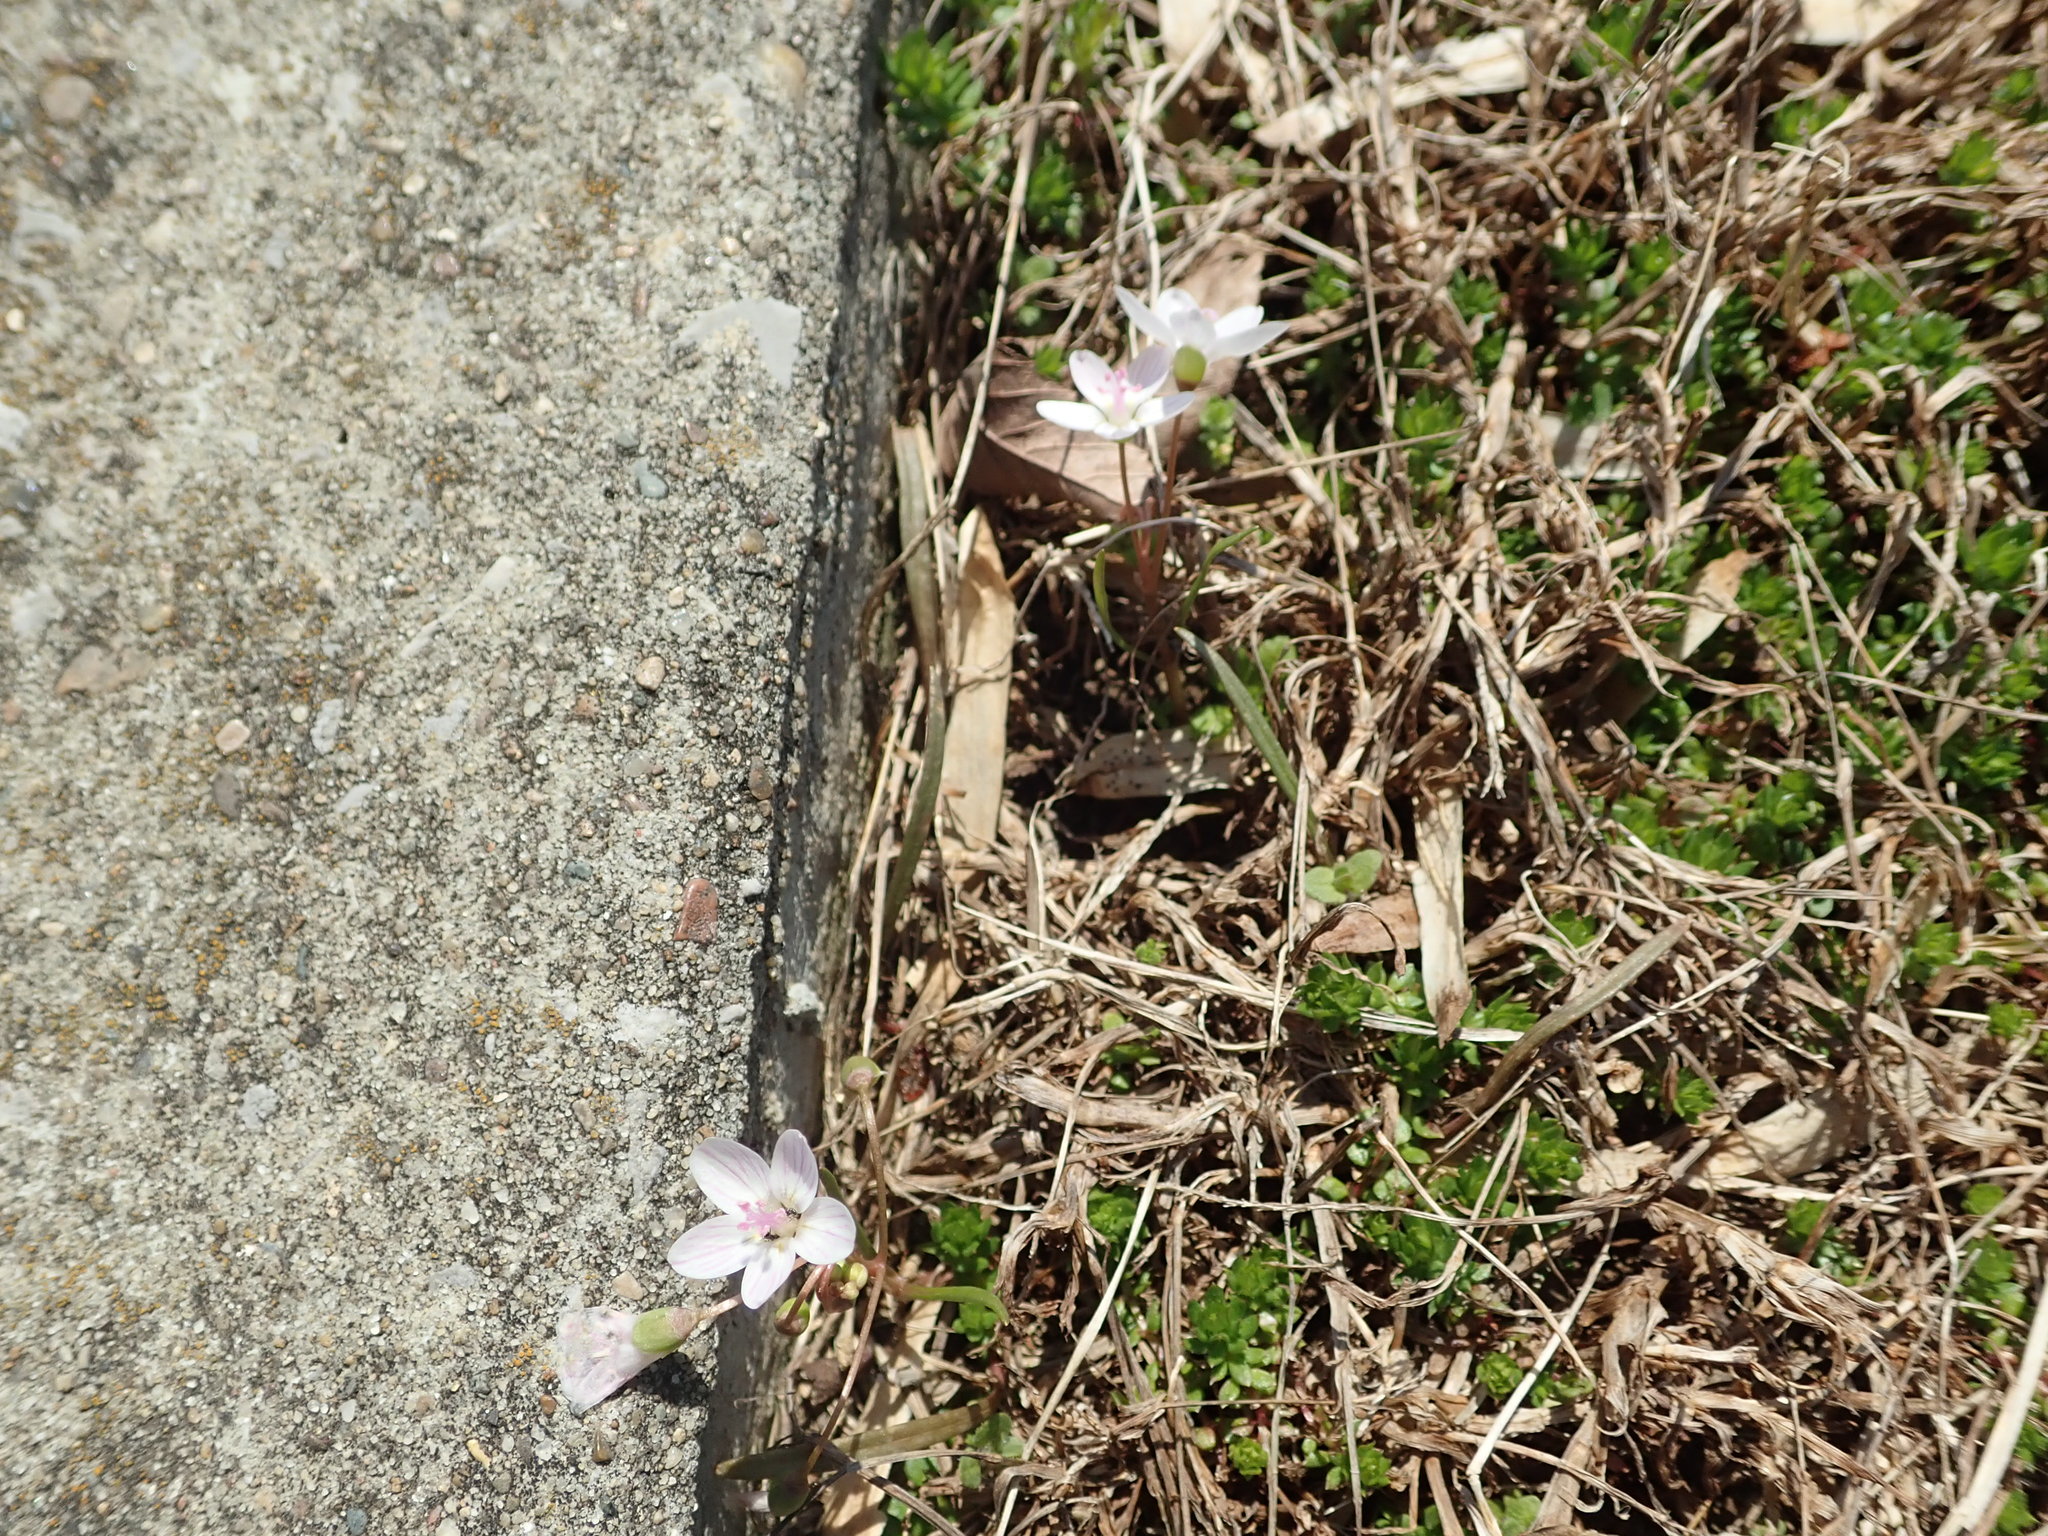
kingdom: Plantae
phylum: Tracheophyta
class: Magnoliopsida
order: Caryophyllales
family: Montiaceae
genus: Claytonia
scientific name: Claytonia virginica
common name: Virginia springbeauty
